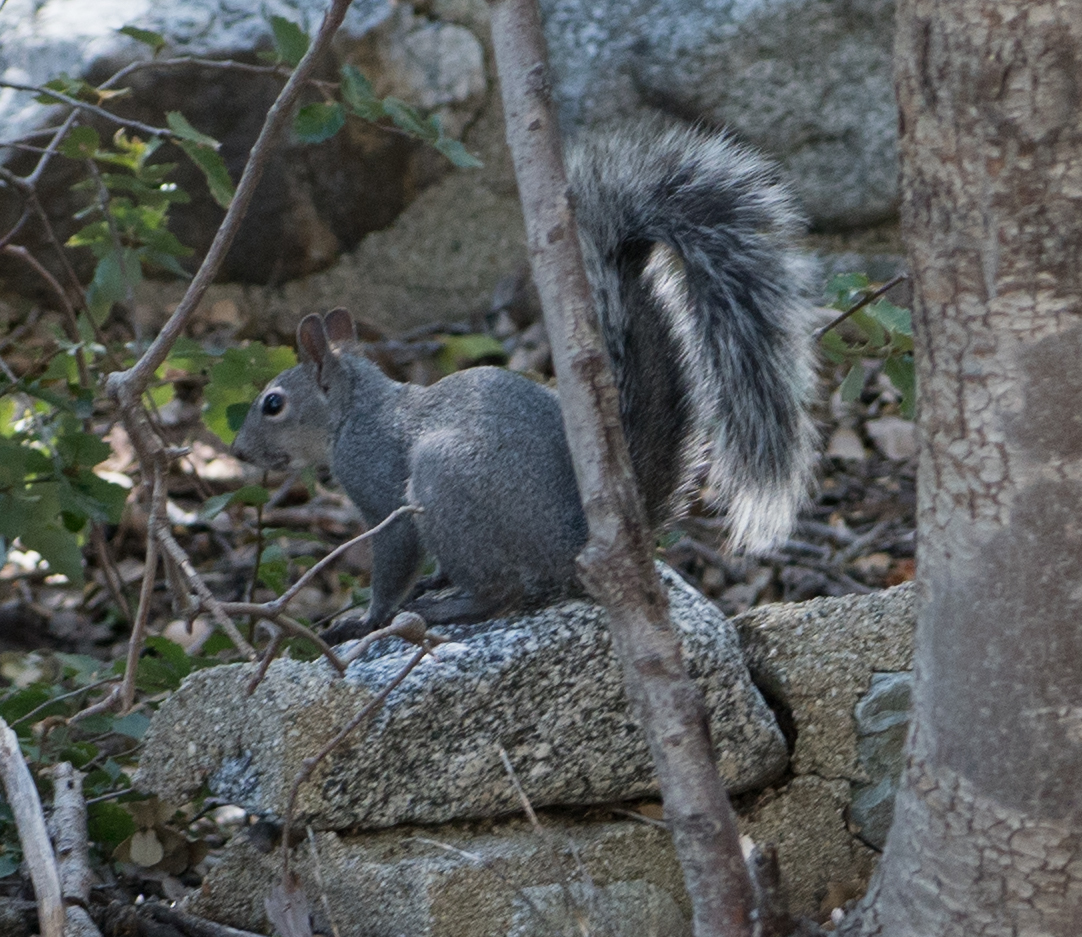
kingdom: Animalia
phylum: Chordata
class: Mammalia
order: Rodentia
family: Sciuridae
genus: Sciurus
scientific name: Sciurus griseus
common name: Western gray squirrel
